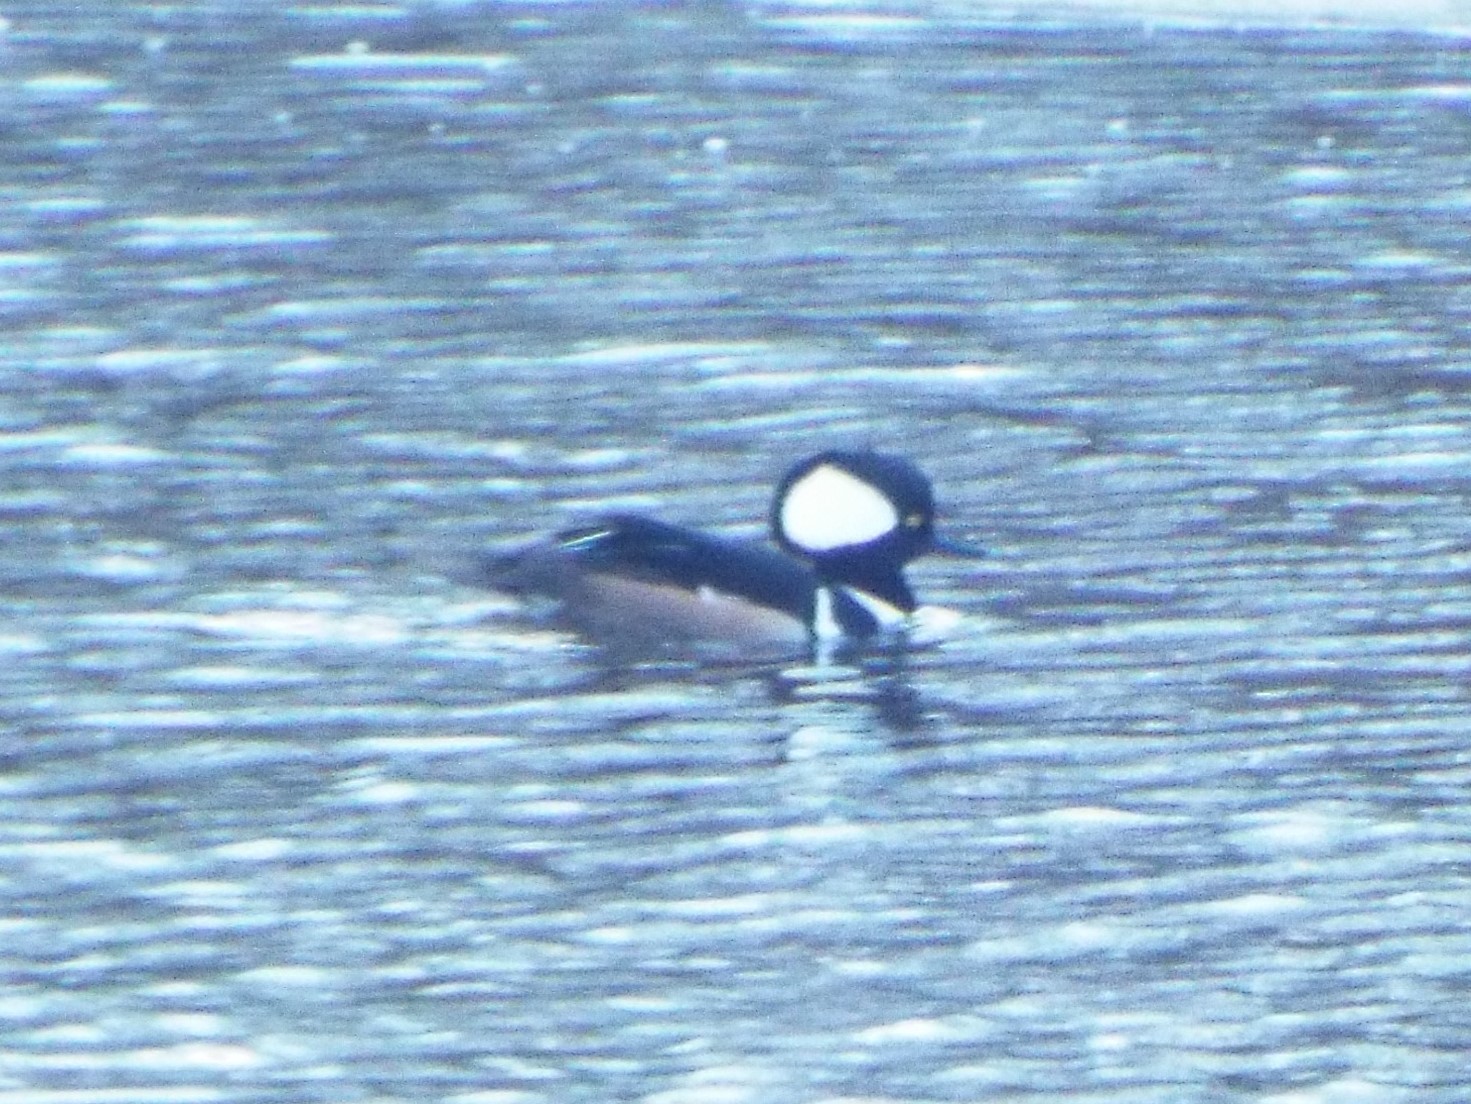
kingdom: Animalia
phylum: Chordata
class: Aves
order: Anseriformes
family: Anatidae
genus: Lophodytes
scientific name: Lophodytes cucullatus
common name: Hooded merganser
